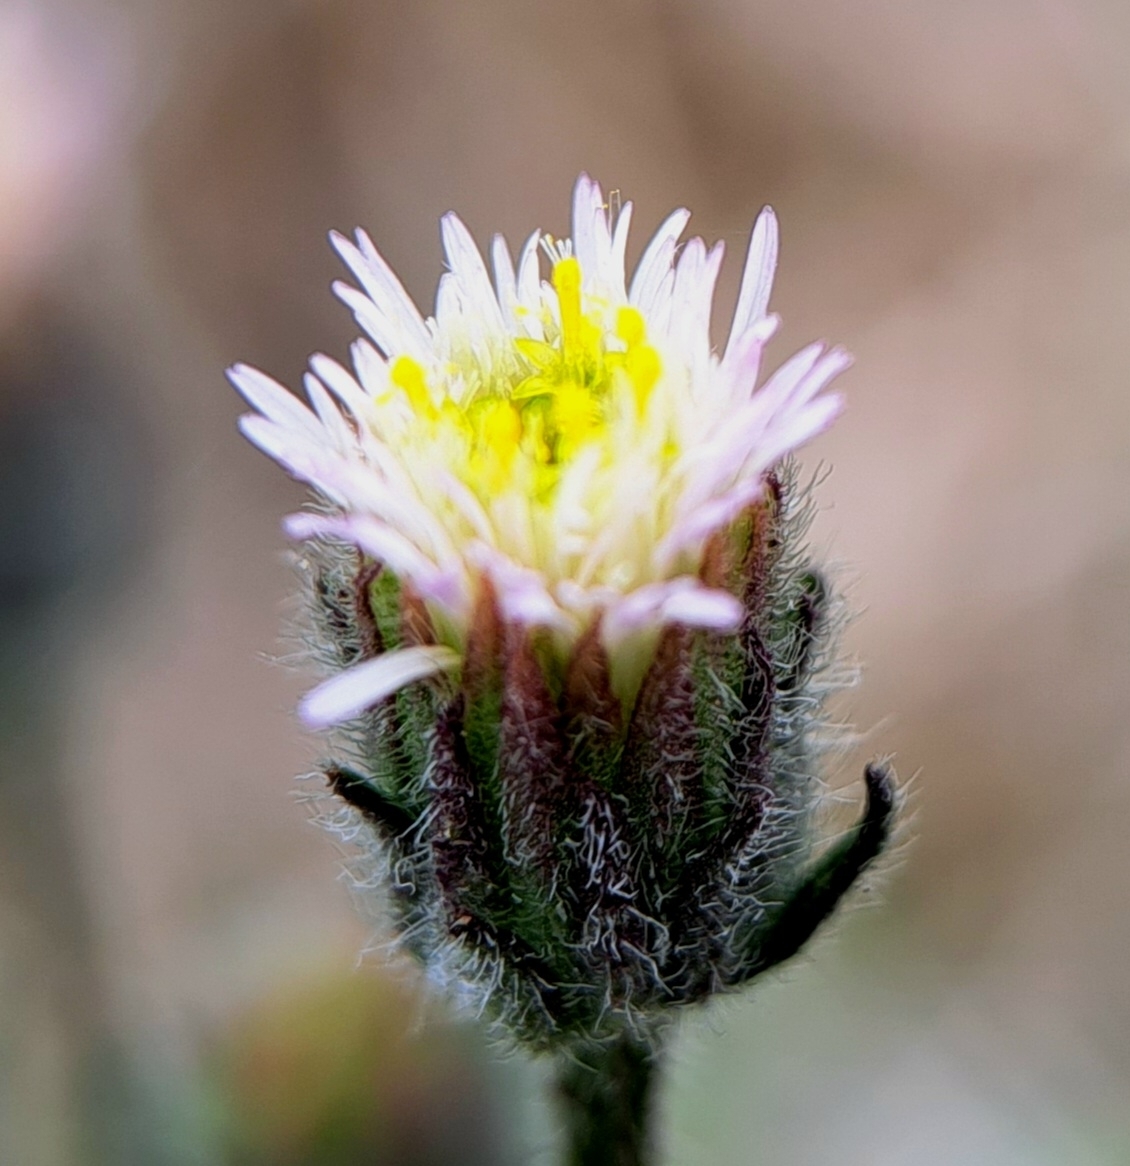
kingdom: Plantae
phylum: Tracheophyta
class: Magnoliopsida
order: Asterales
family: Asteraceae
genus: Erigeron
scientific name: Erigeron acris
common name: Blue fleabane
